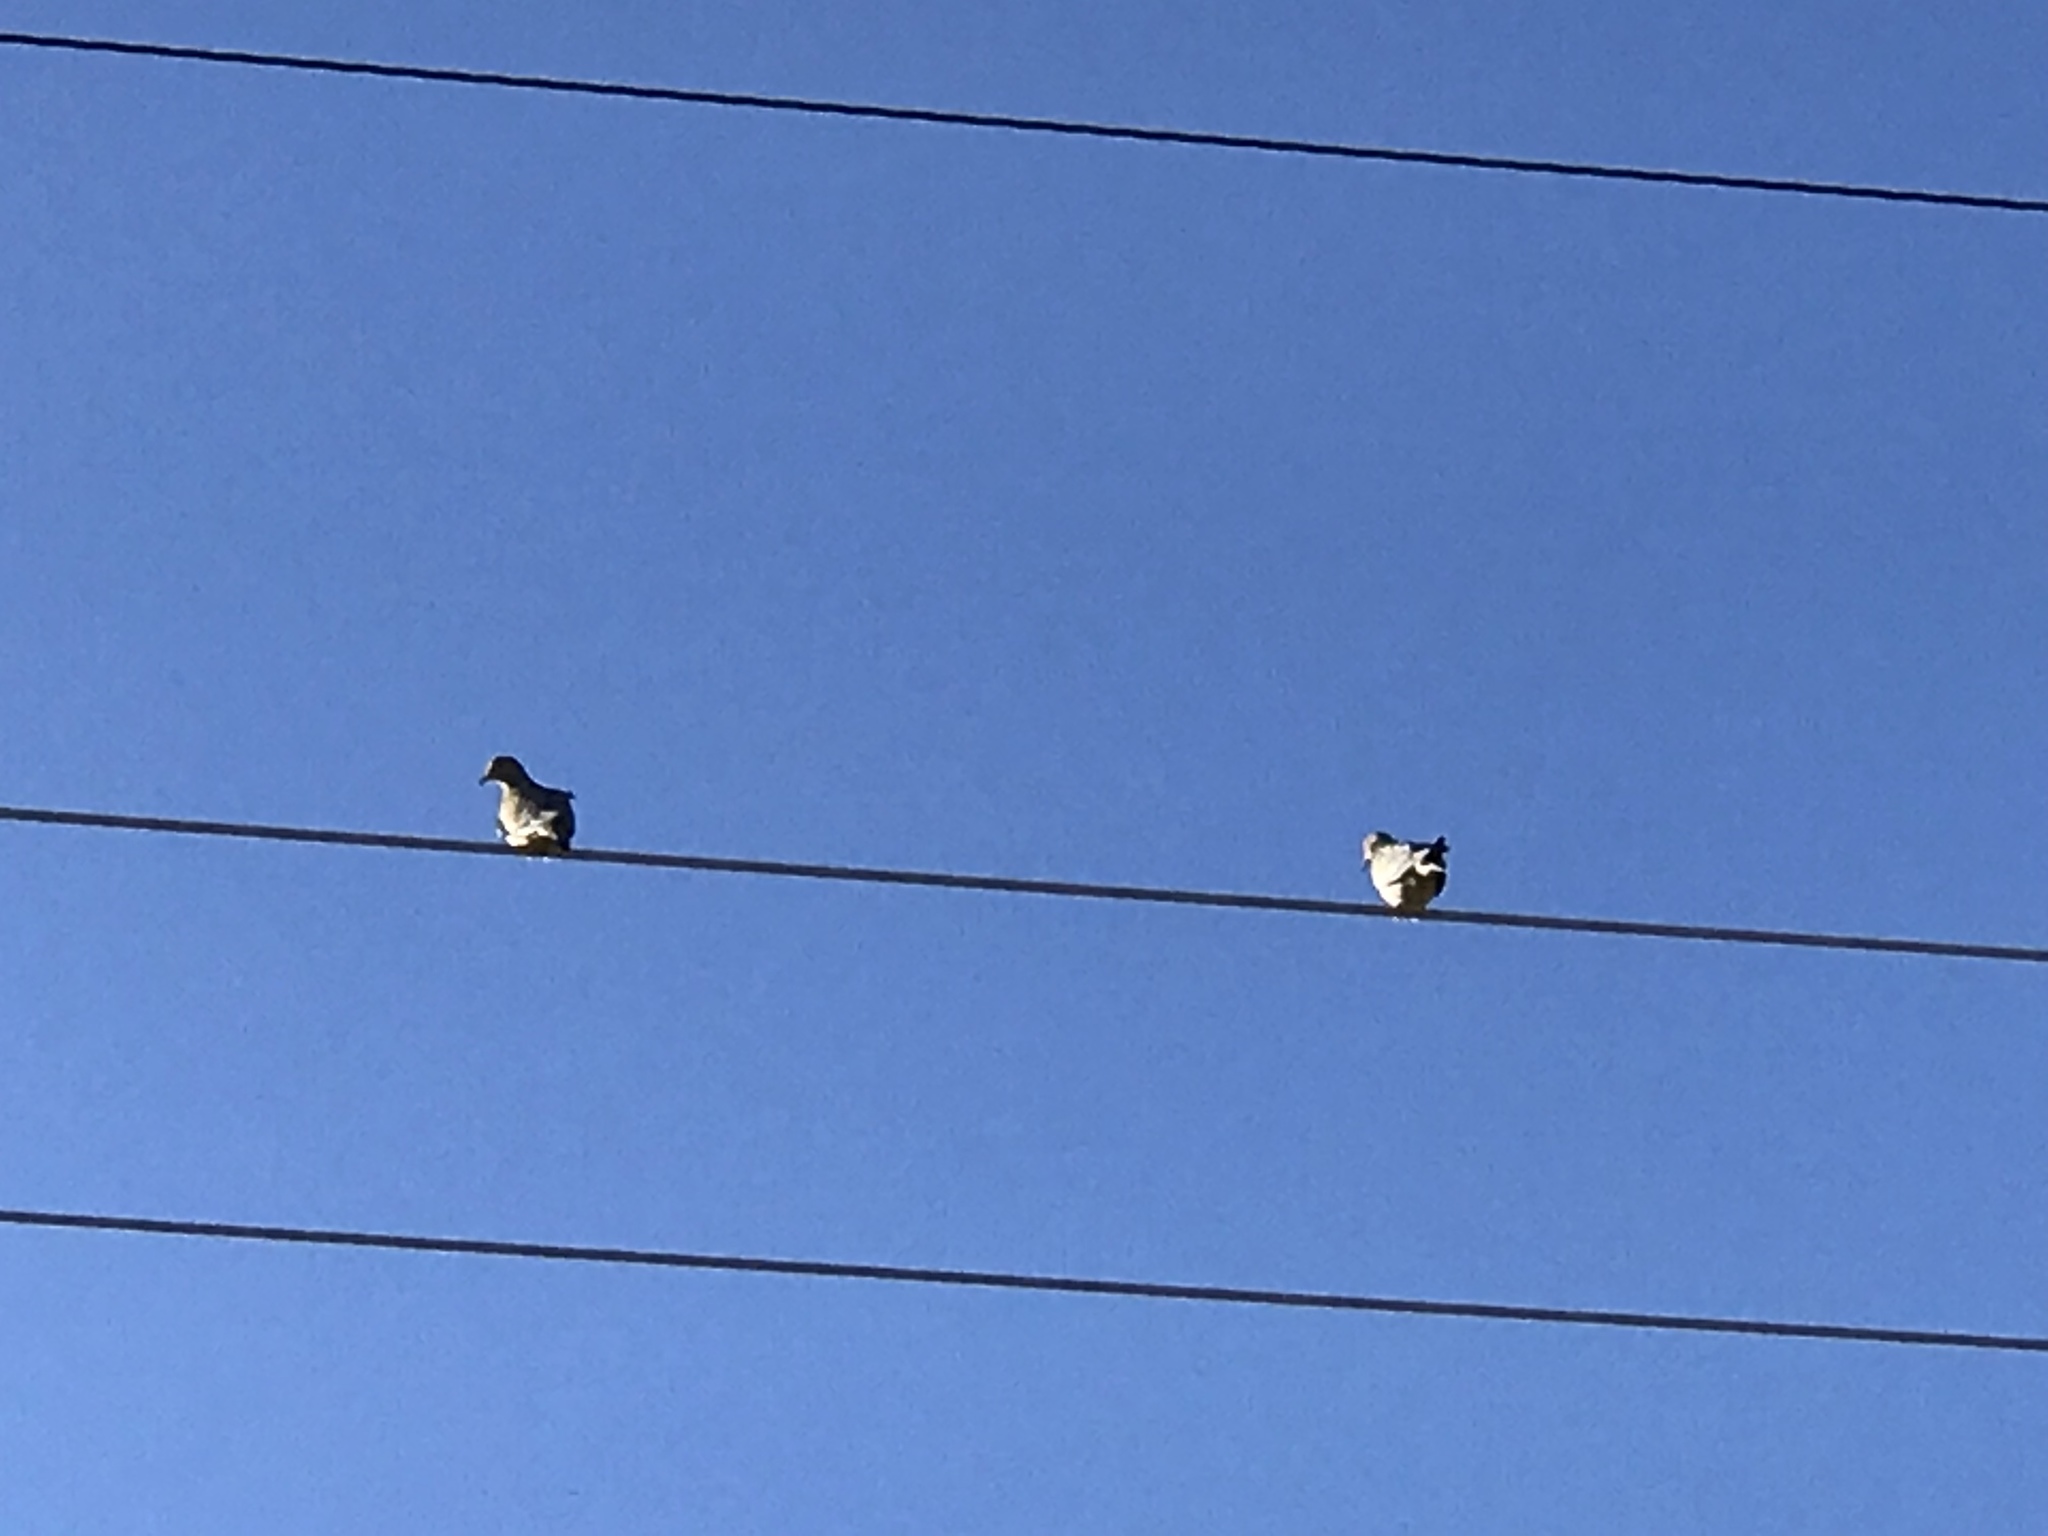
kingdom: Animalia
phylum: Chordata
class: Aves
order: Columbiformes
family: Columbidae
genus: Zenaida
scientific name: Zenaida macroura
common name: Mourning dove
